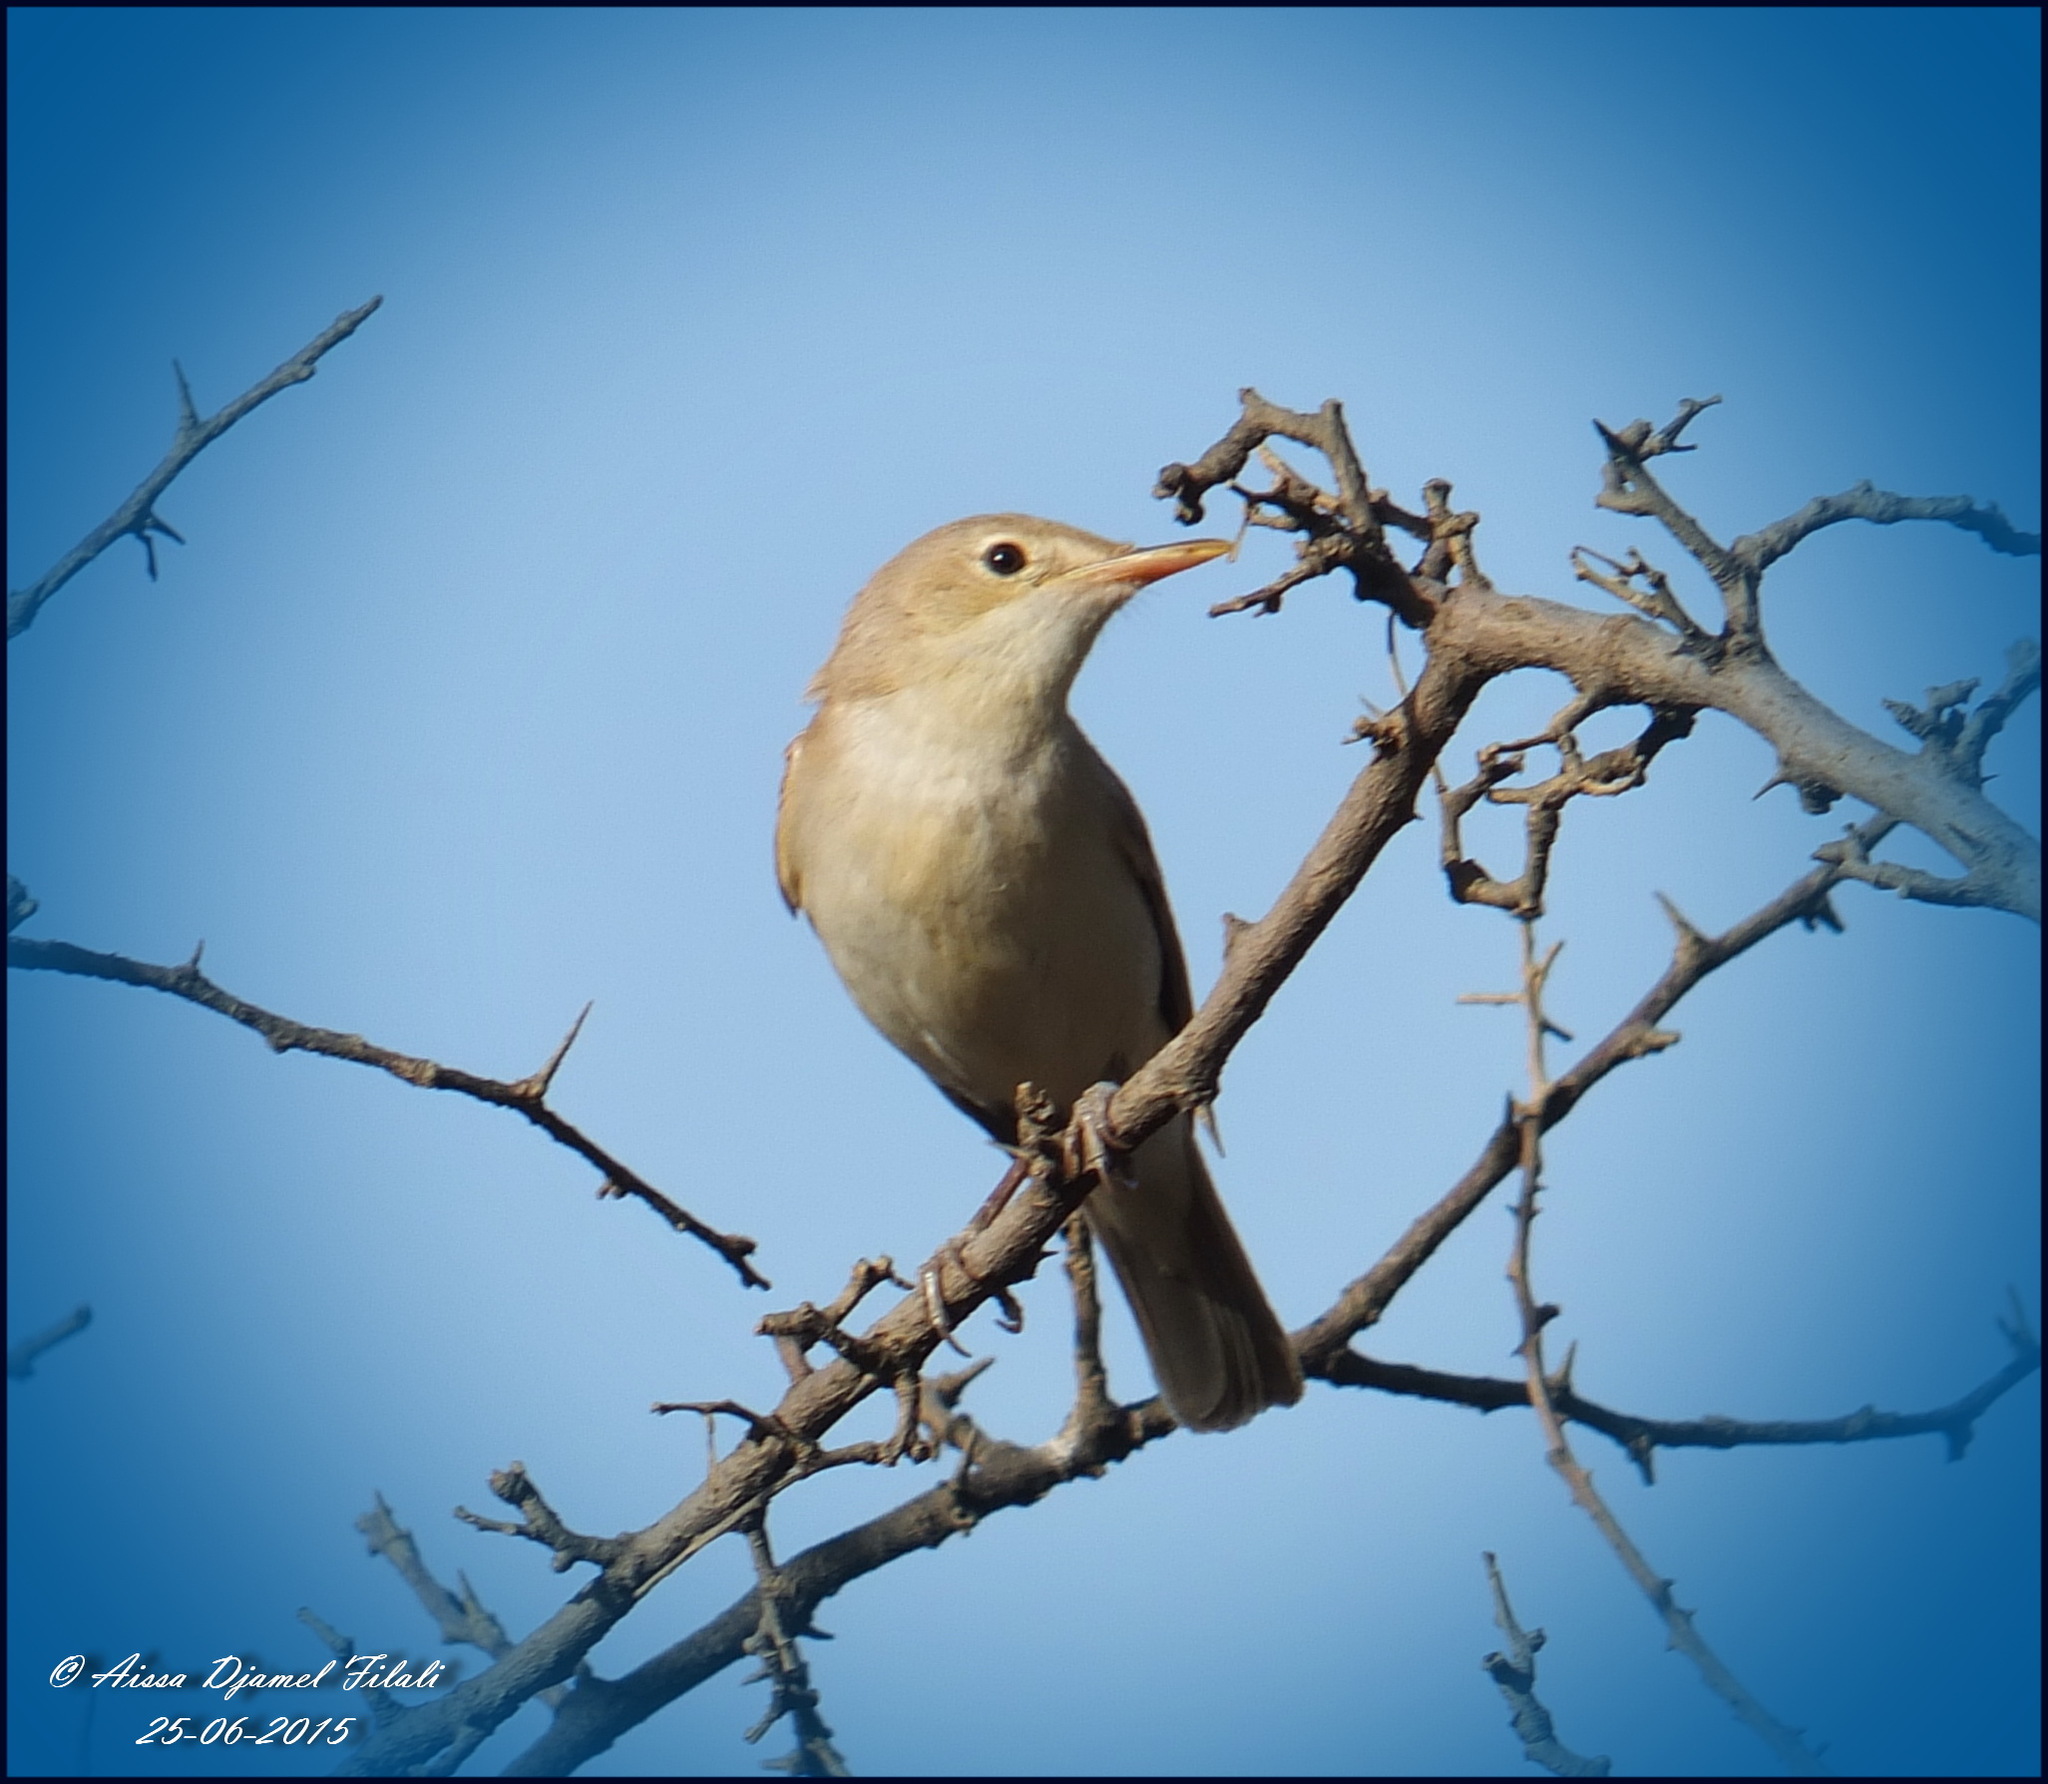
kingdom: Animalia
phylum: Chordata
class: Aves
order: Passeriformes
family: Acrocephalidae
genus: Iduna
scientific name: Iduna opaca
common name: Western olivaceous warbler
